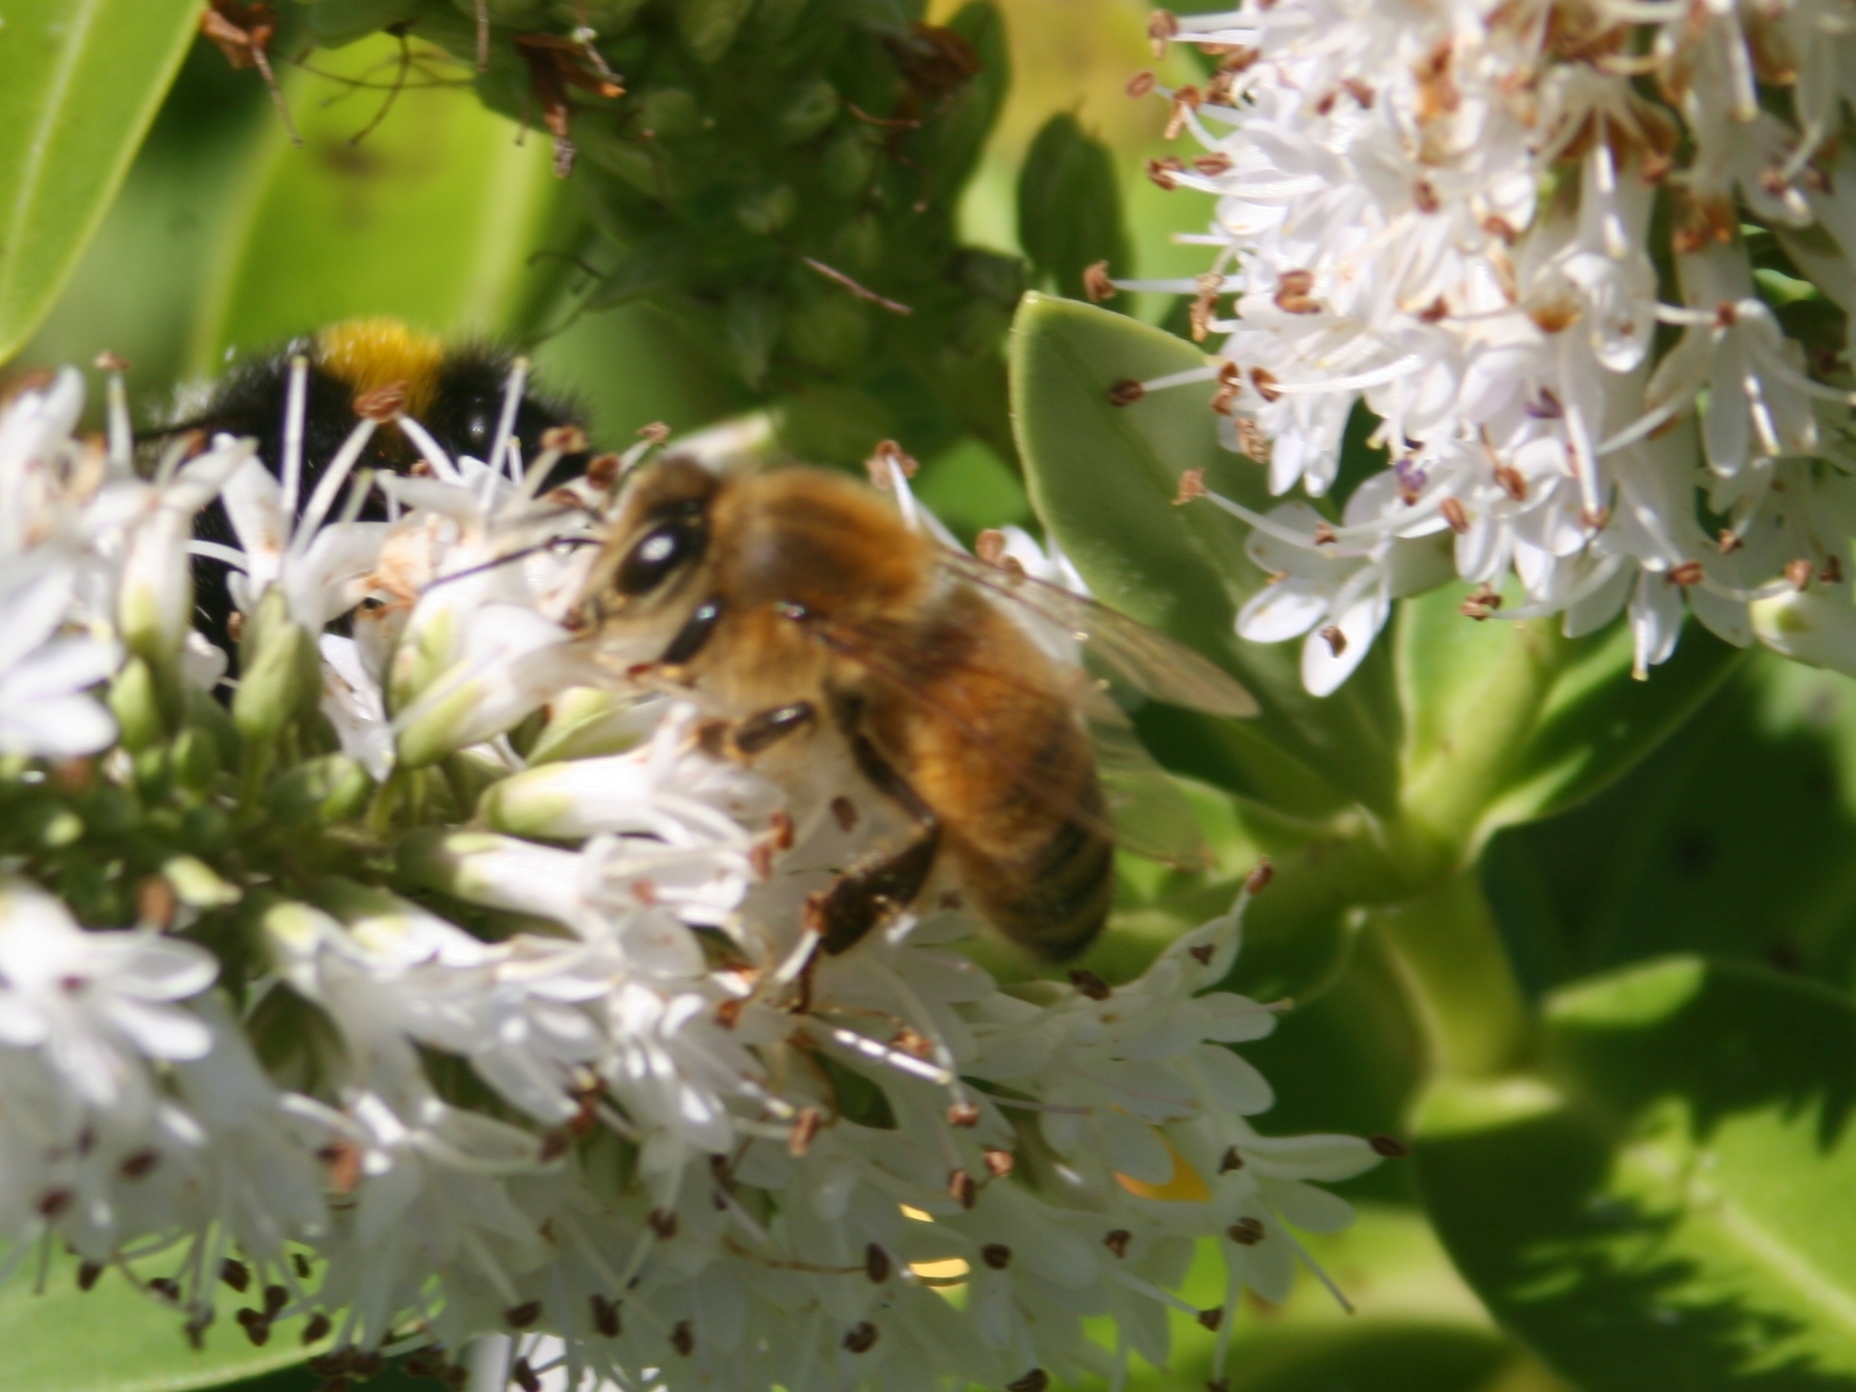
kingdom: Animalia
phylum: Arthropoda
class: Insecta
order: Hymenoptera
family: Apidae
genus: Apis
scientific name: Apis mellifera
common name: Honey bee
